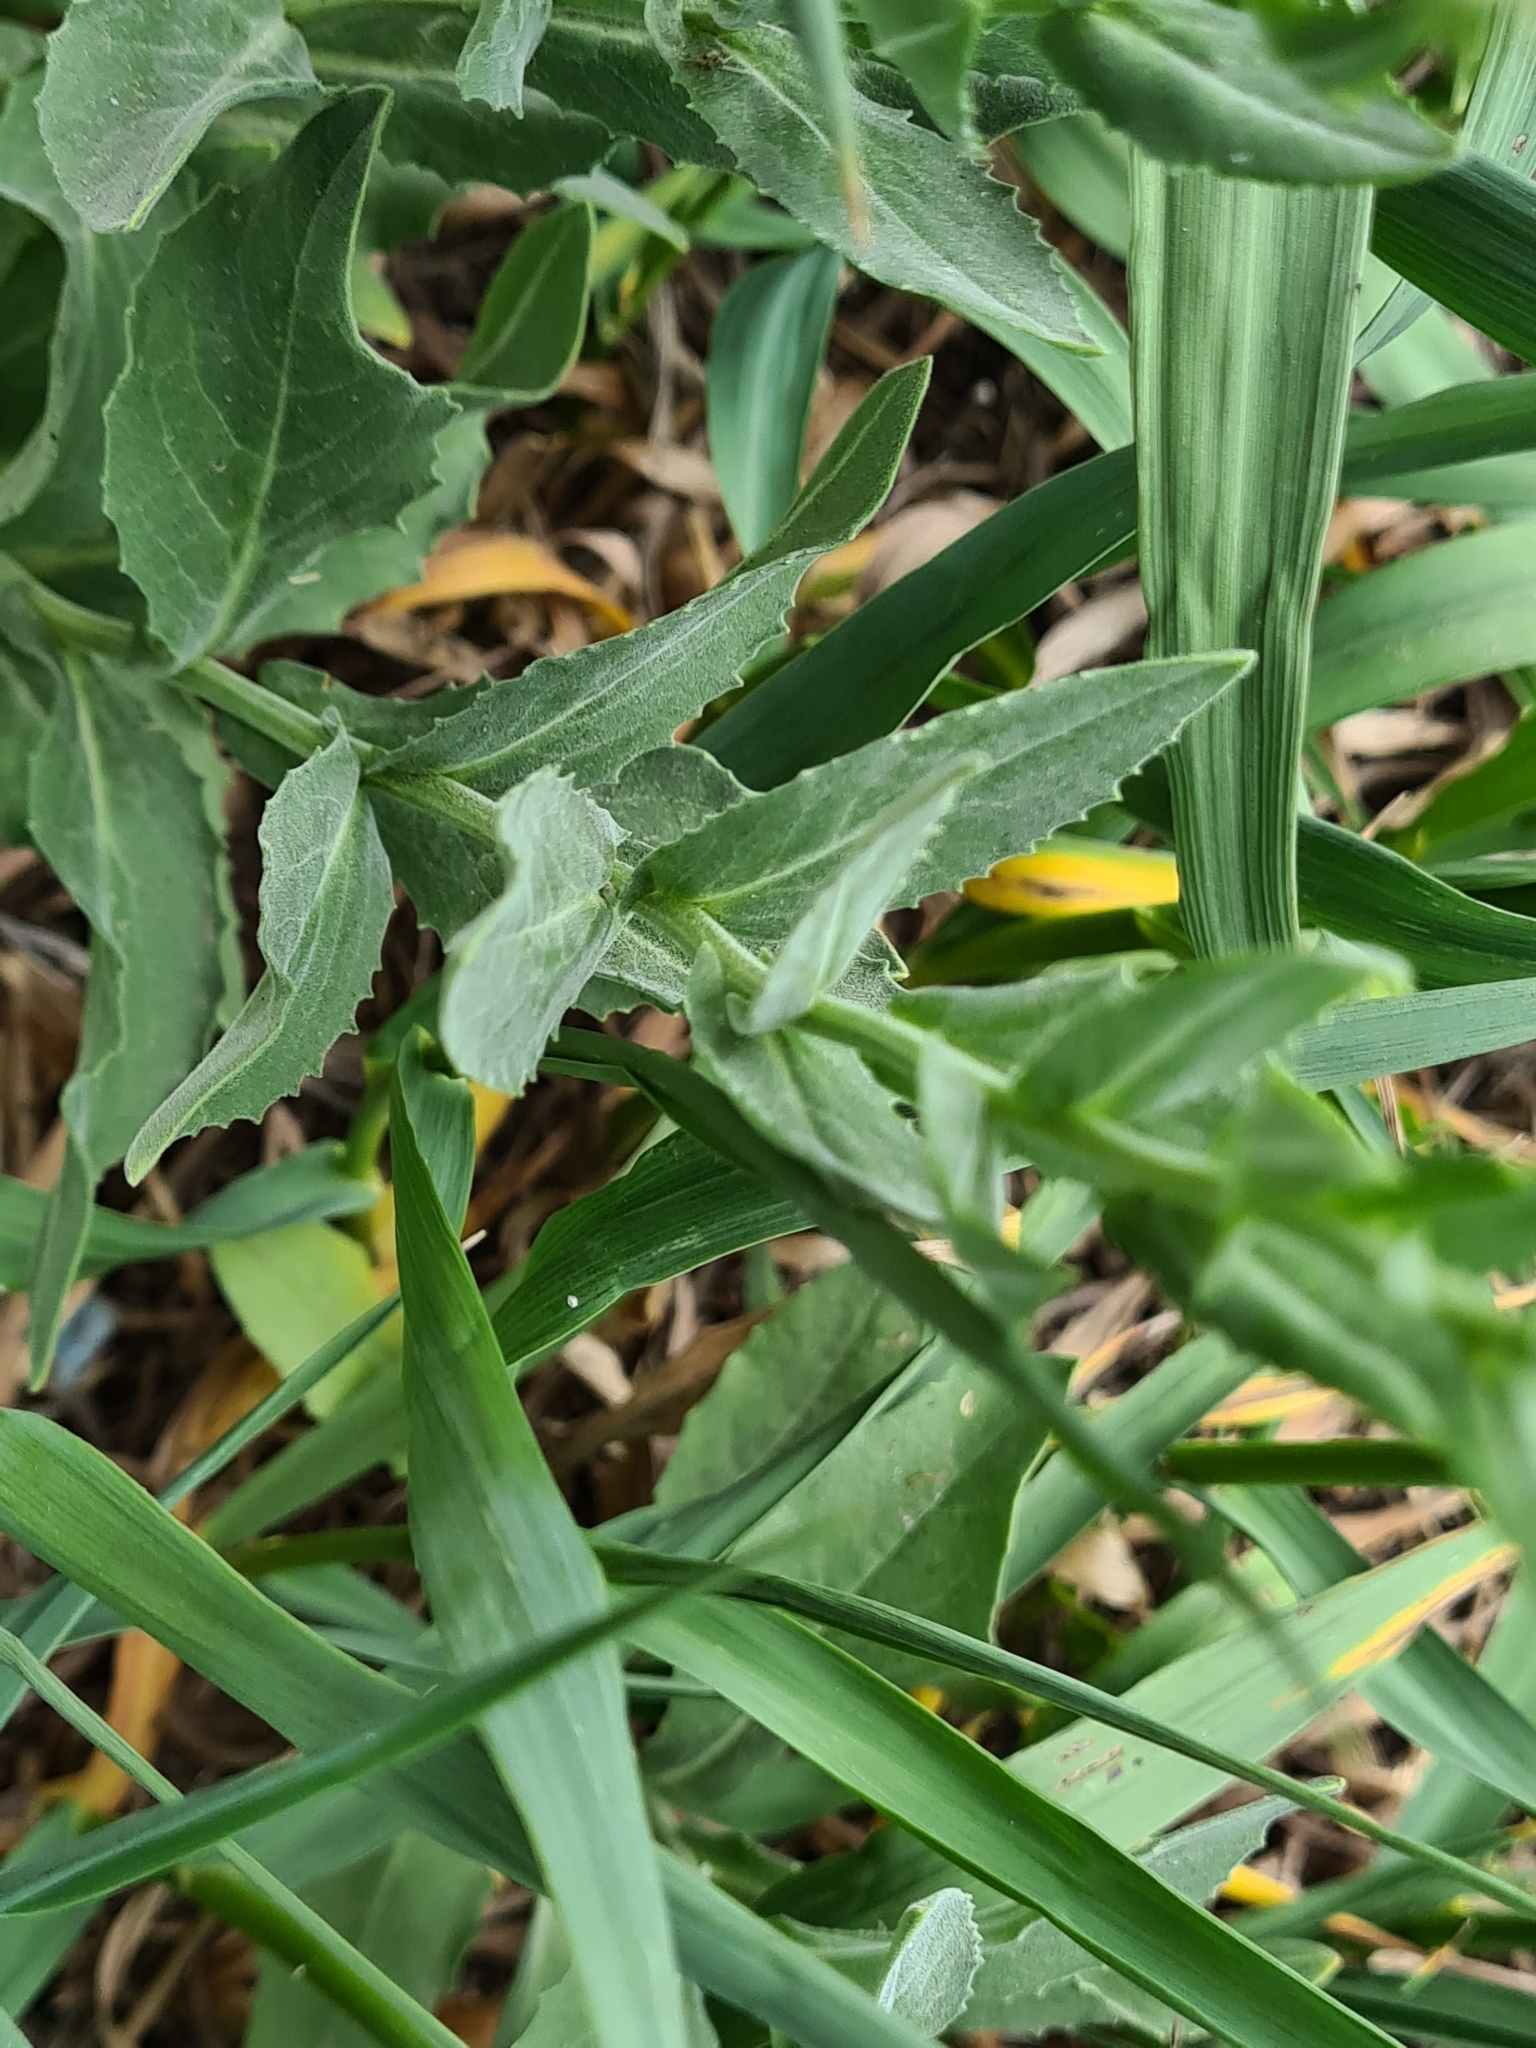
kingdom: Plantae
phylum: Tracheophyta
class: Magnoliopsida
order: Brassicales
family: Brassicaceae
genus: Lepidium
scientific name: Lepidium draba
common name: Hoary cress
